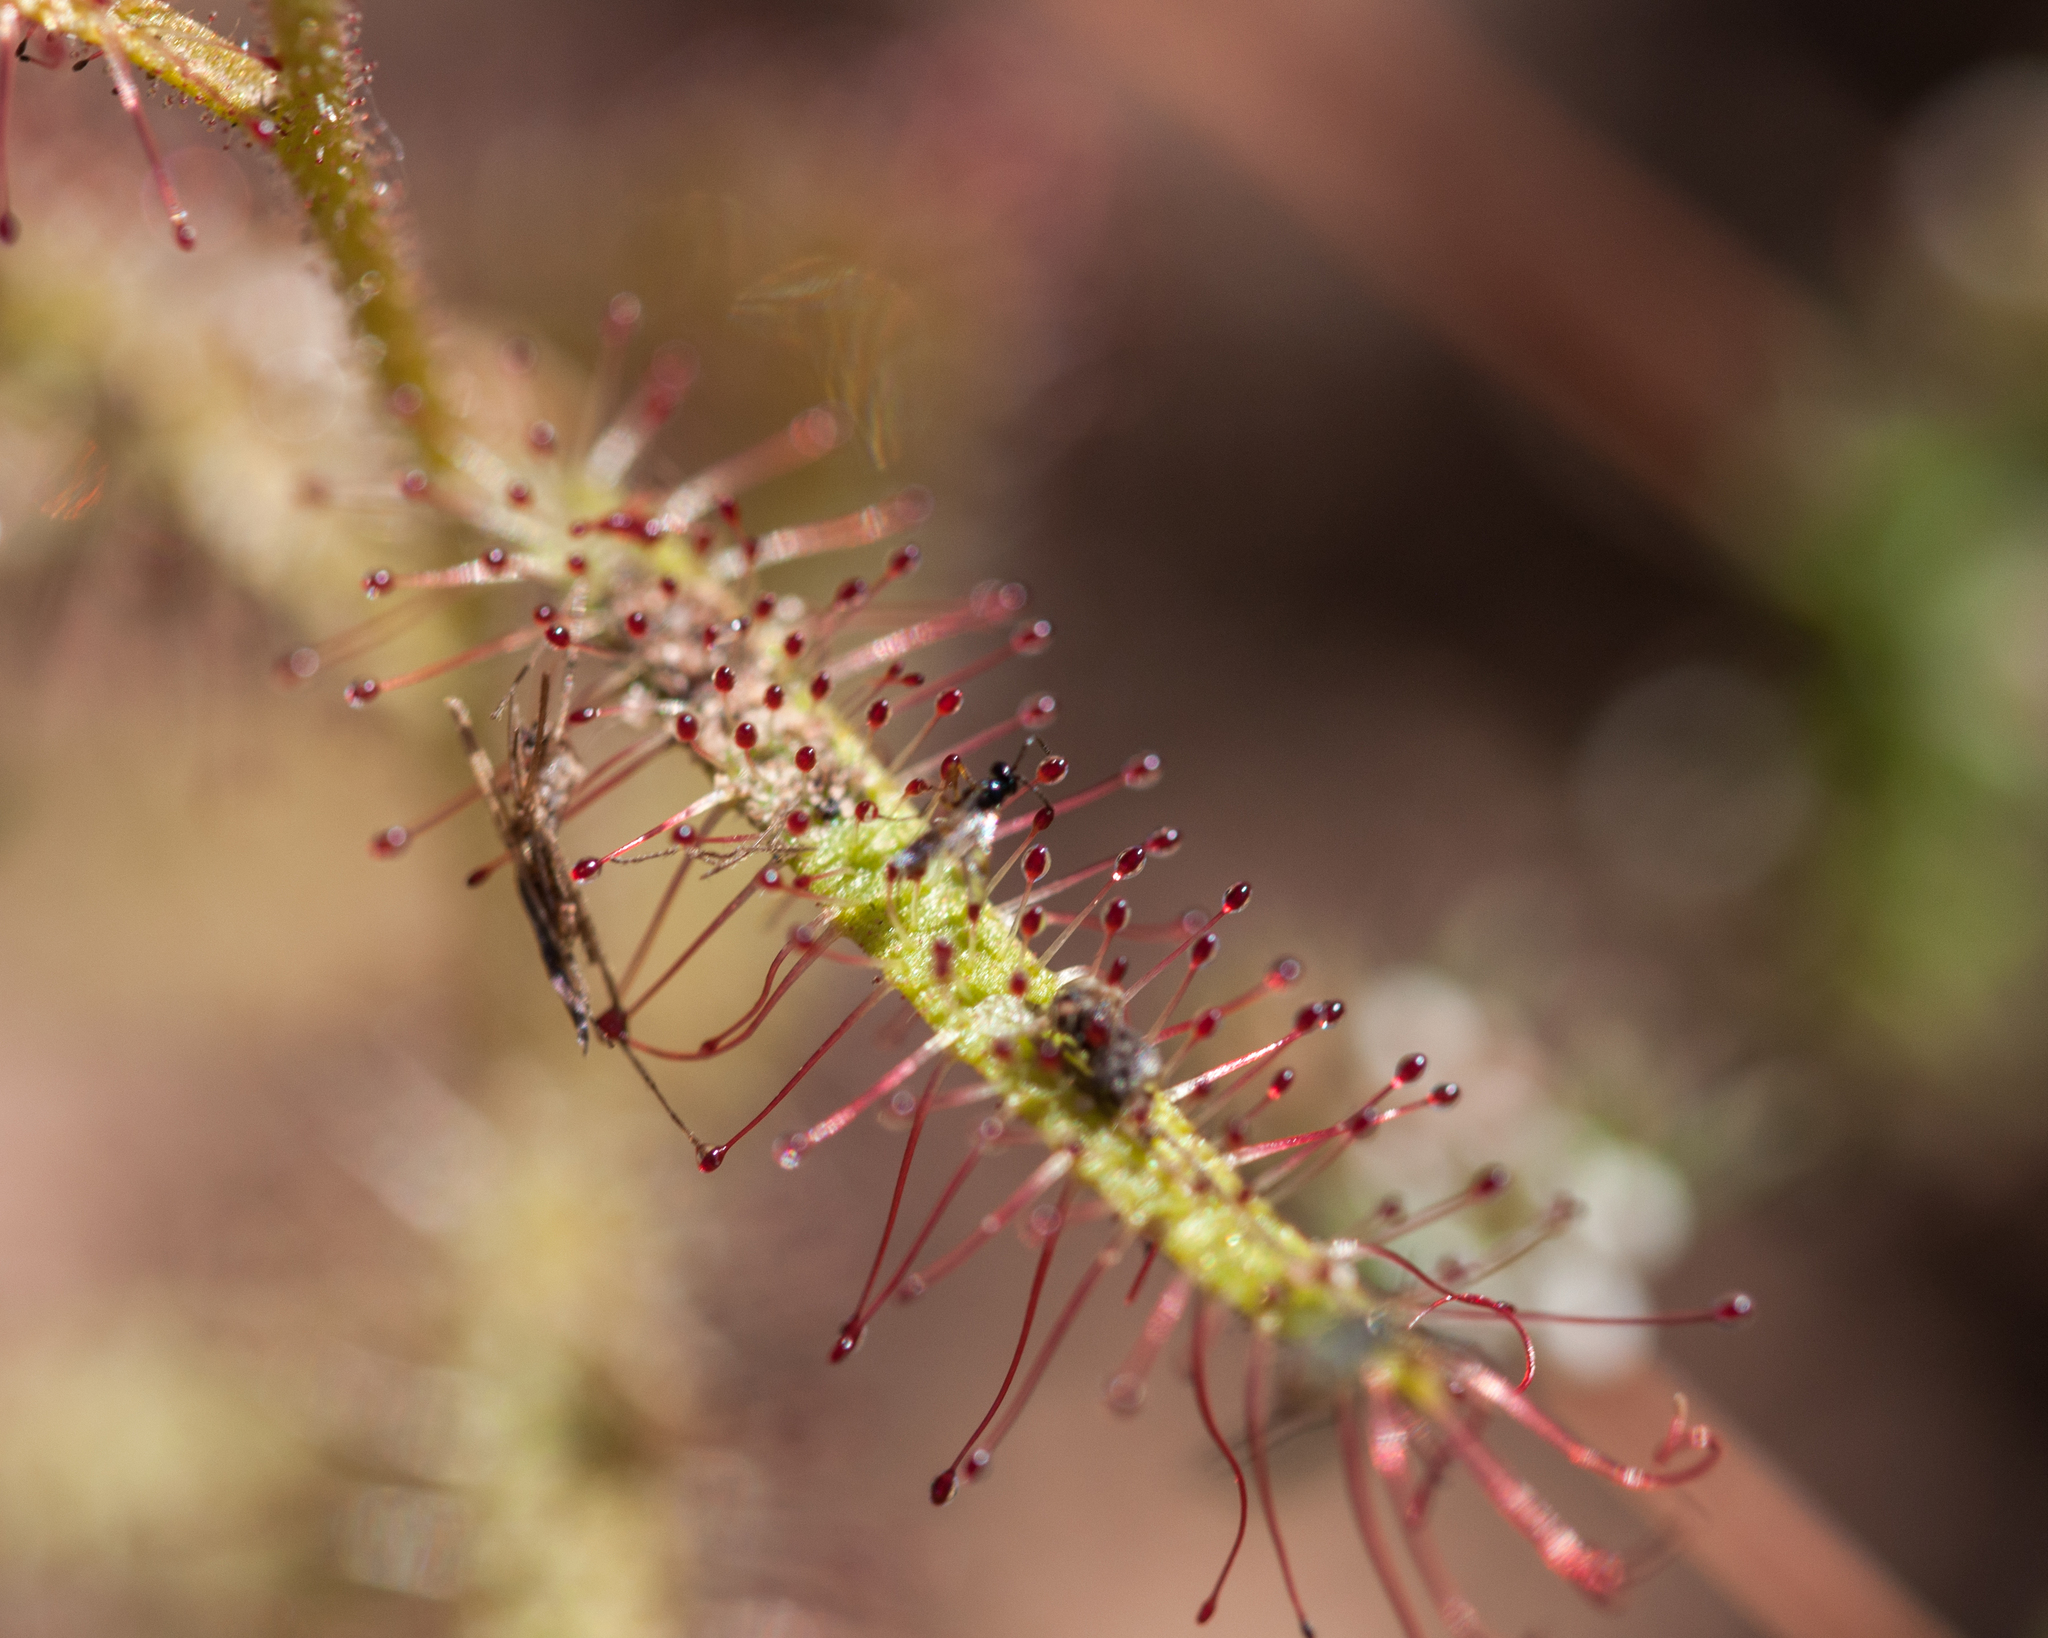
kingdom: Plantae
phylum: Tracheophyta
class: Magnoliopsida
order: Caryophyllales
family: Droseraceae
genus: Drosera
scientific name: Drosera cistiflora
